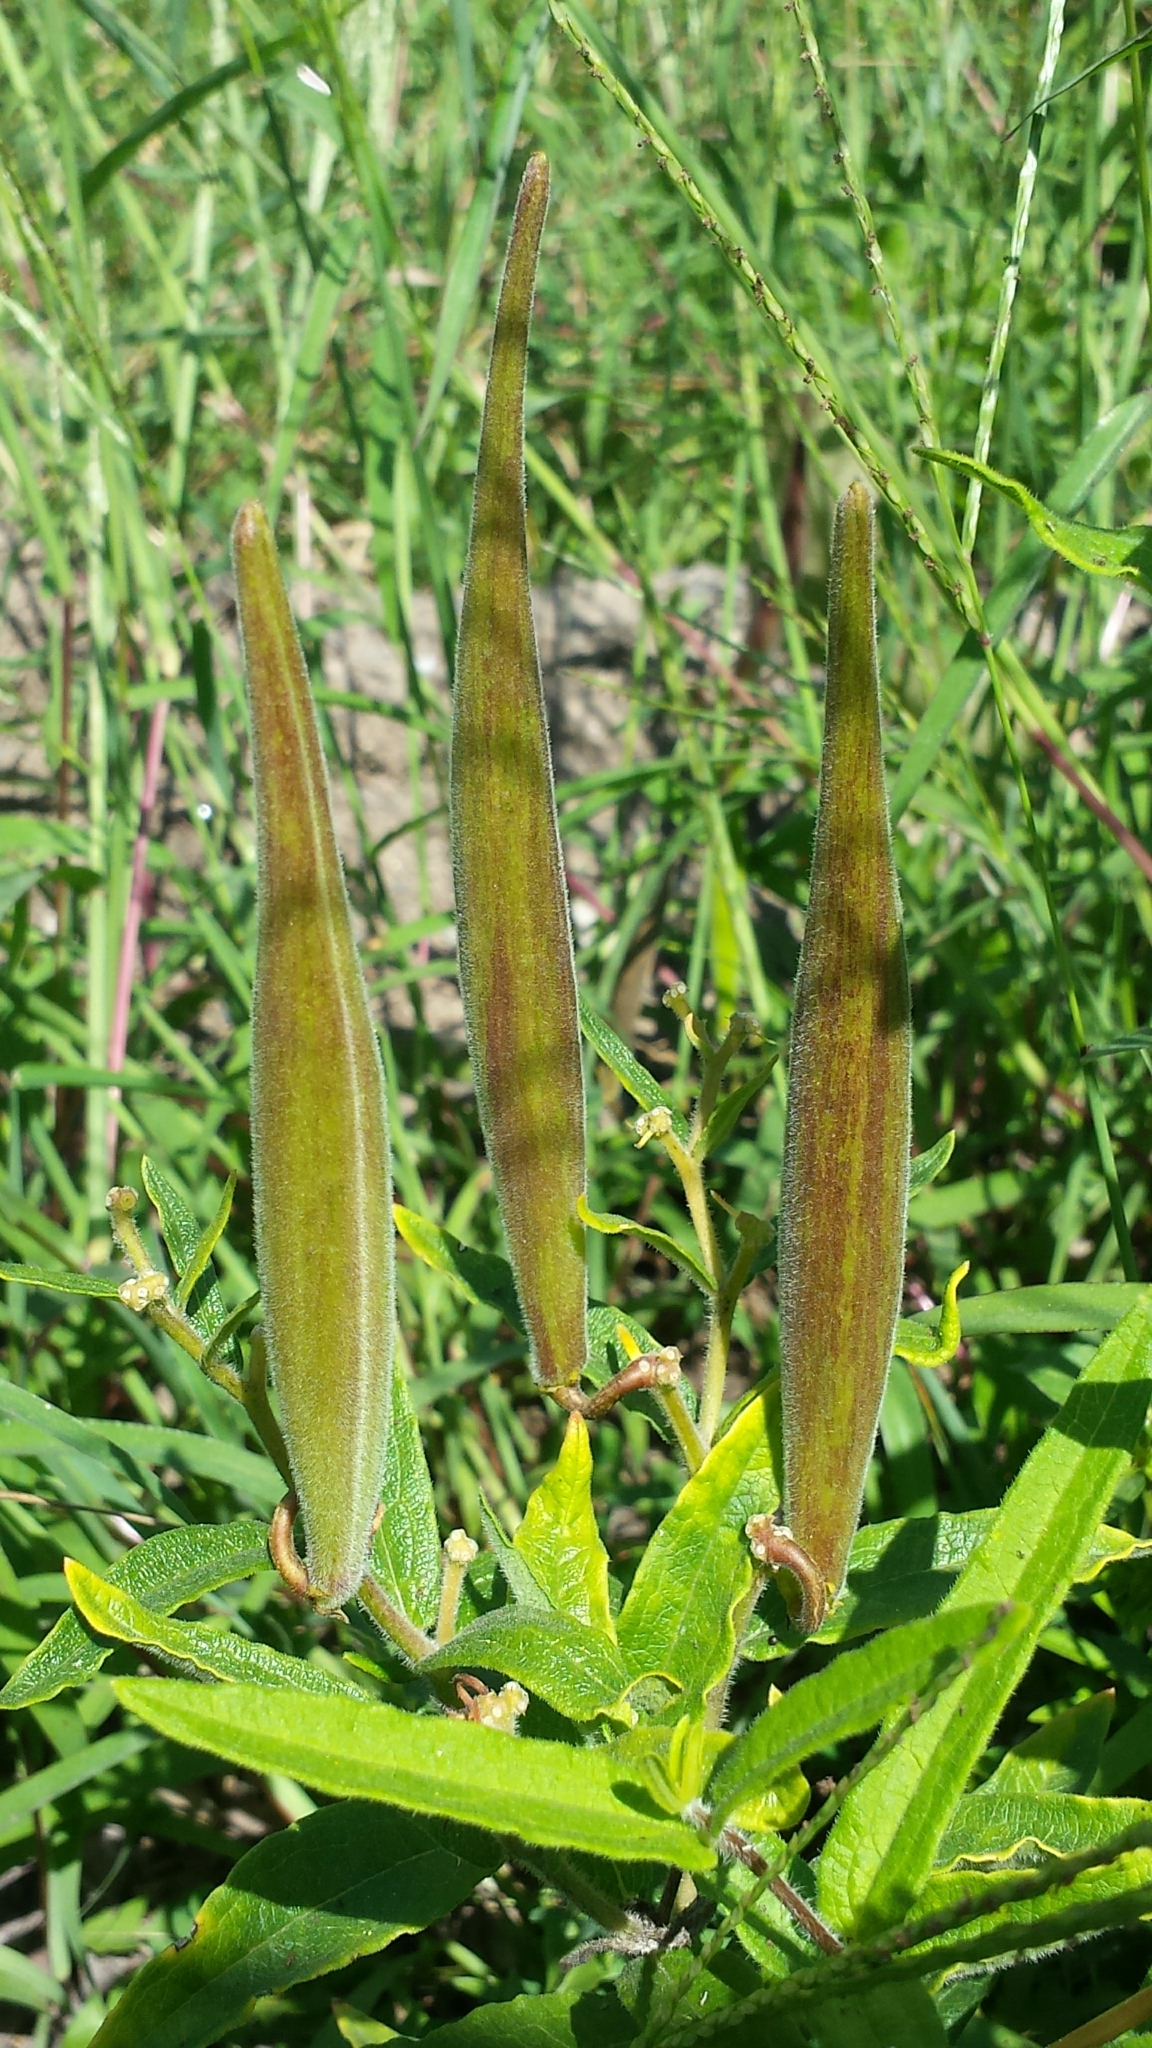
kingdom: Plantae
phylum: Tracheophyta
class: Magnoliopsida
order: Gentianales
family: Apocynaceae
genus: Asclepias
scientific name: Asclepias tuberosa
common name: Butterfly milkweed
